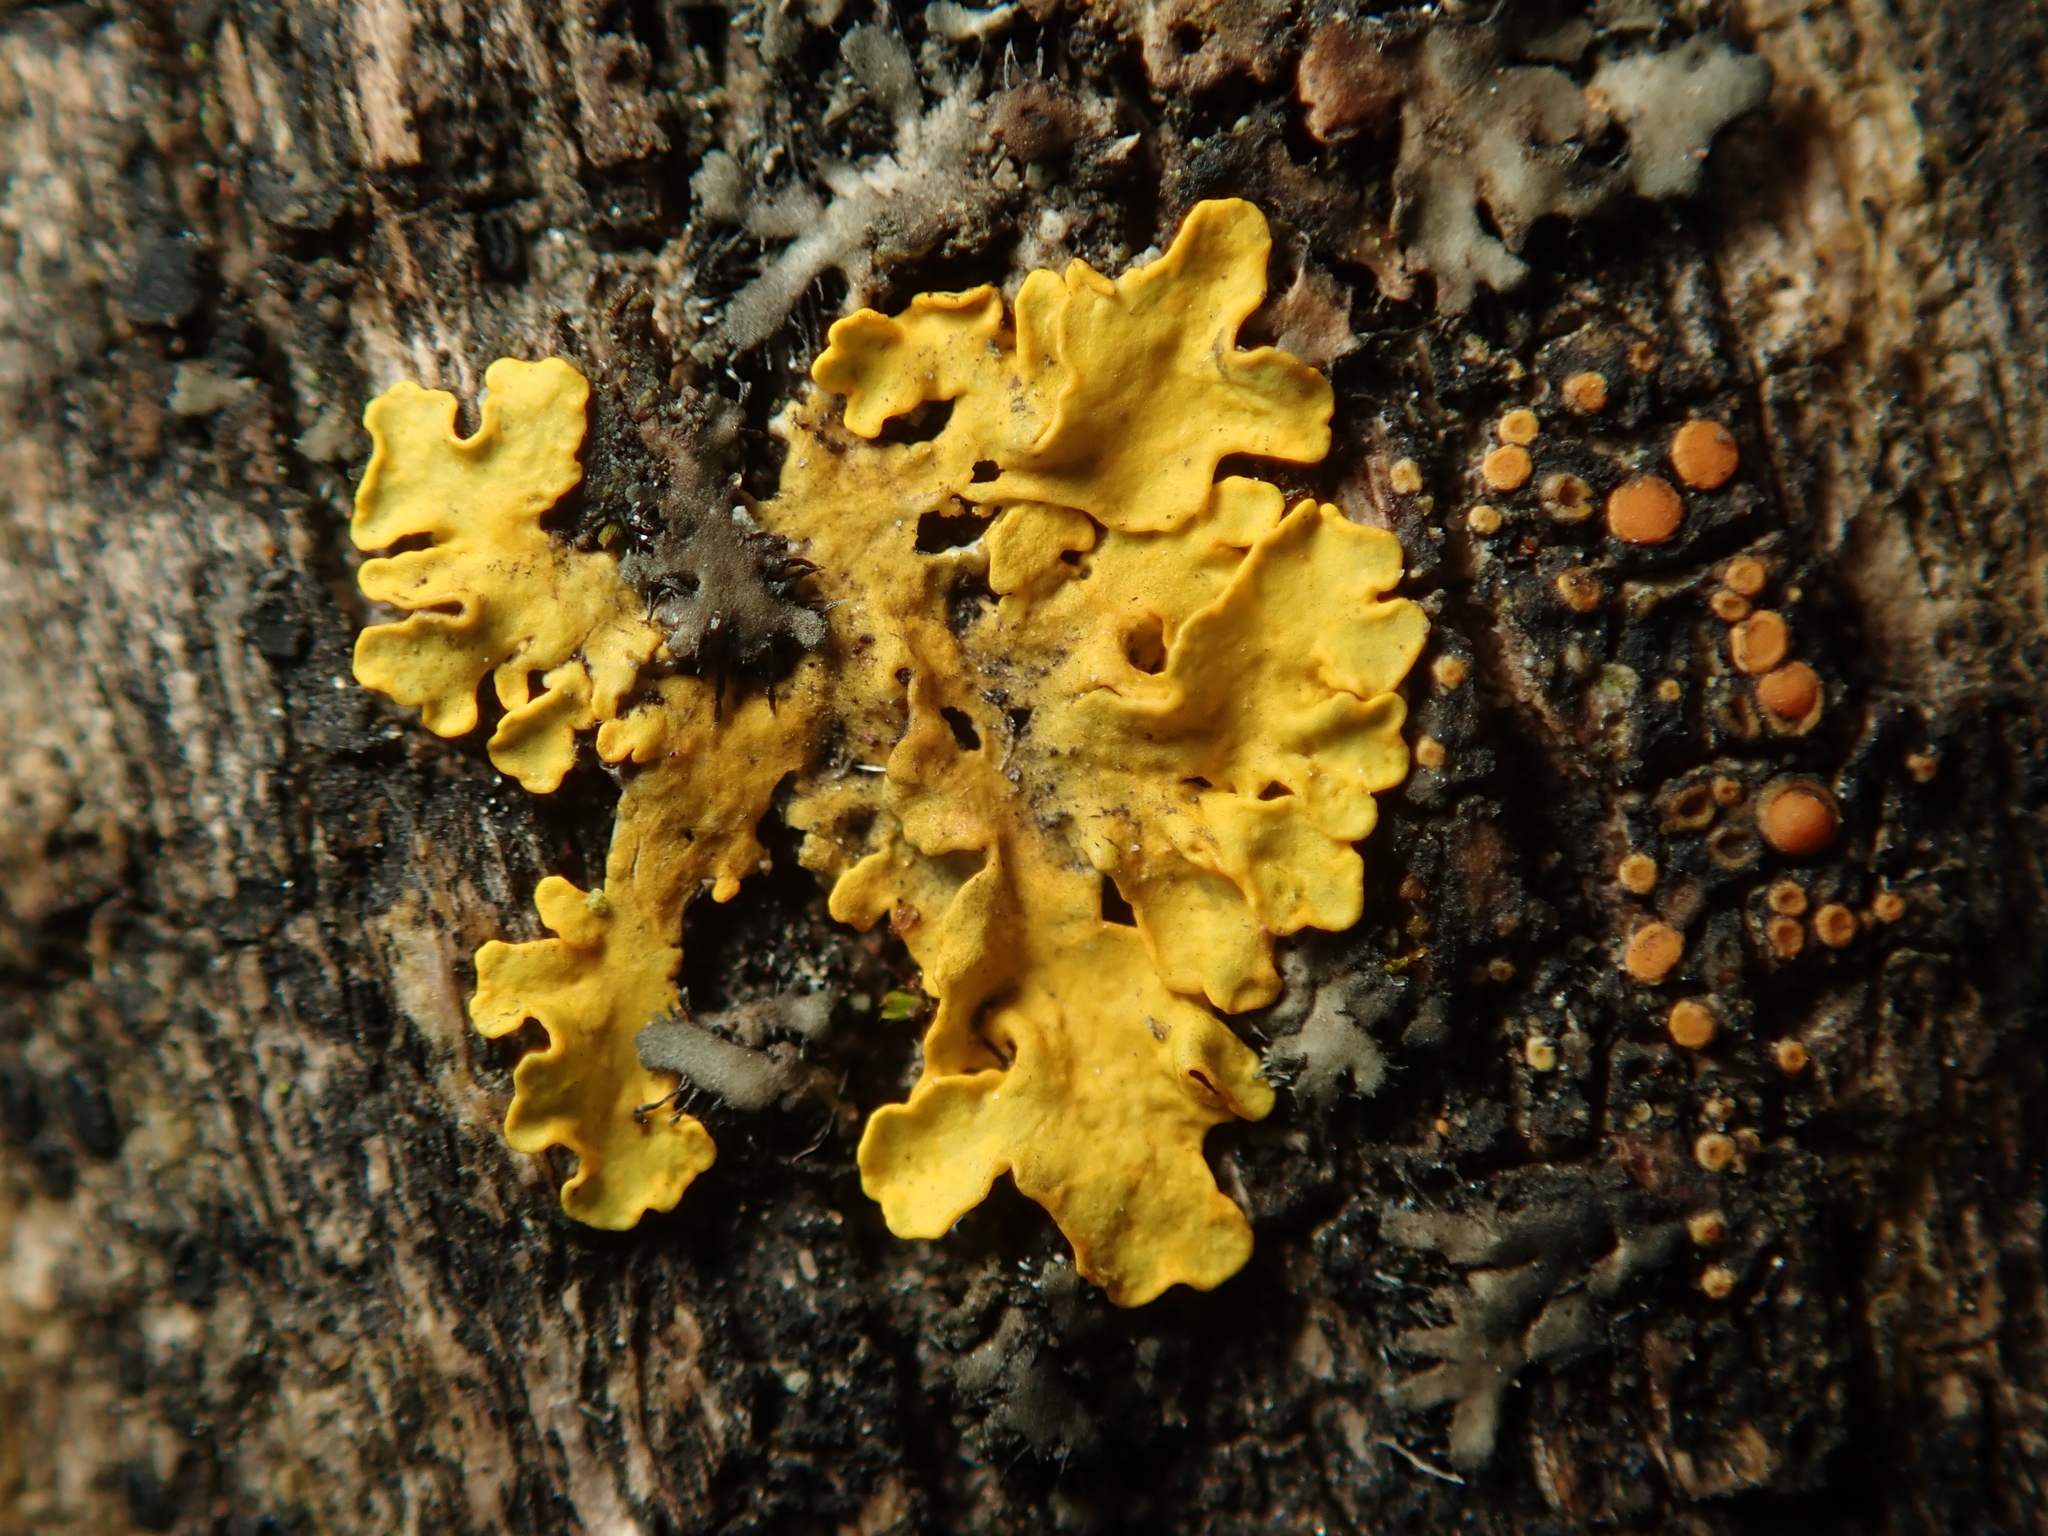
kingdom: Fungi
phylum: Ascomycota
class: Lecanoromycetes
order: Teloschistales
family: Teloschistaceae
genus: Xanthoria
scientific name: Xanthoria parietina
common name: Common orange lichen
